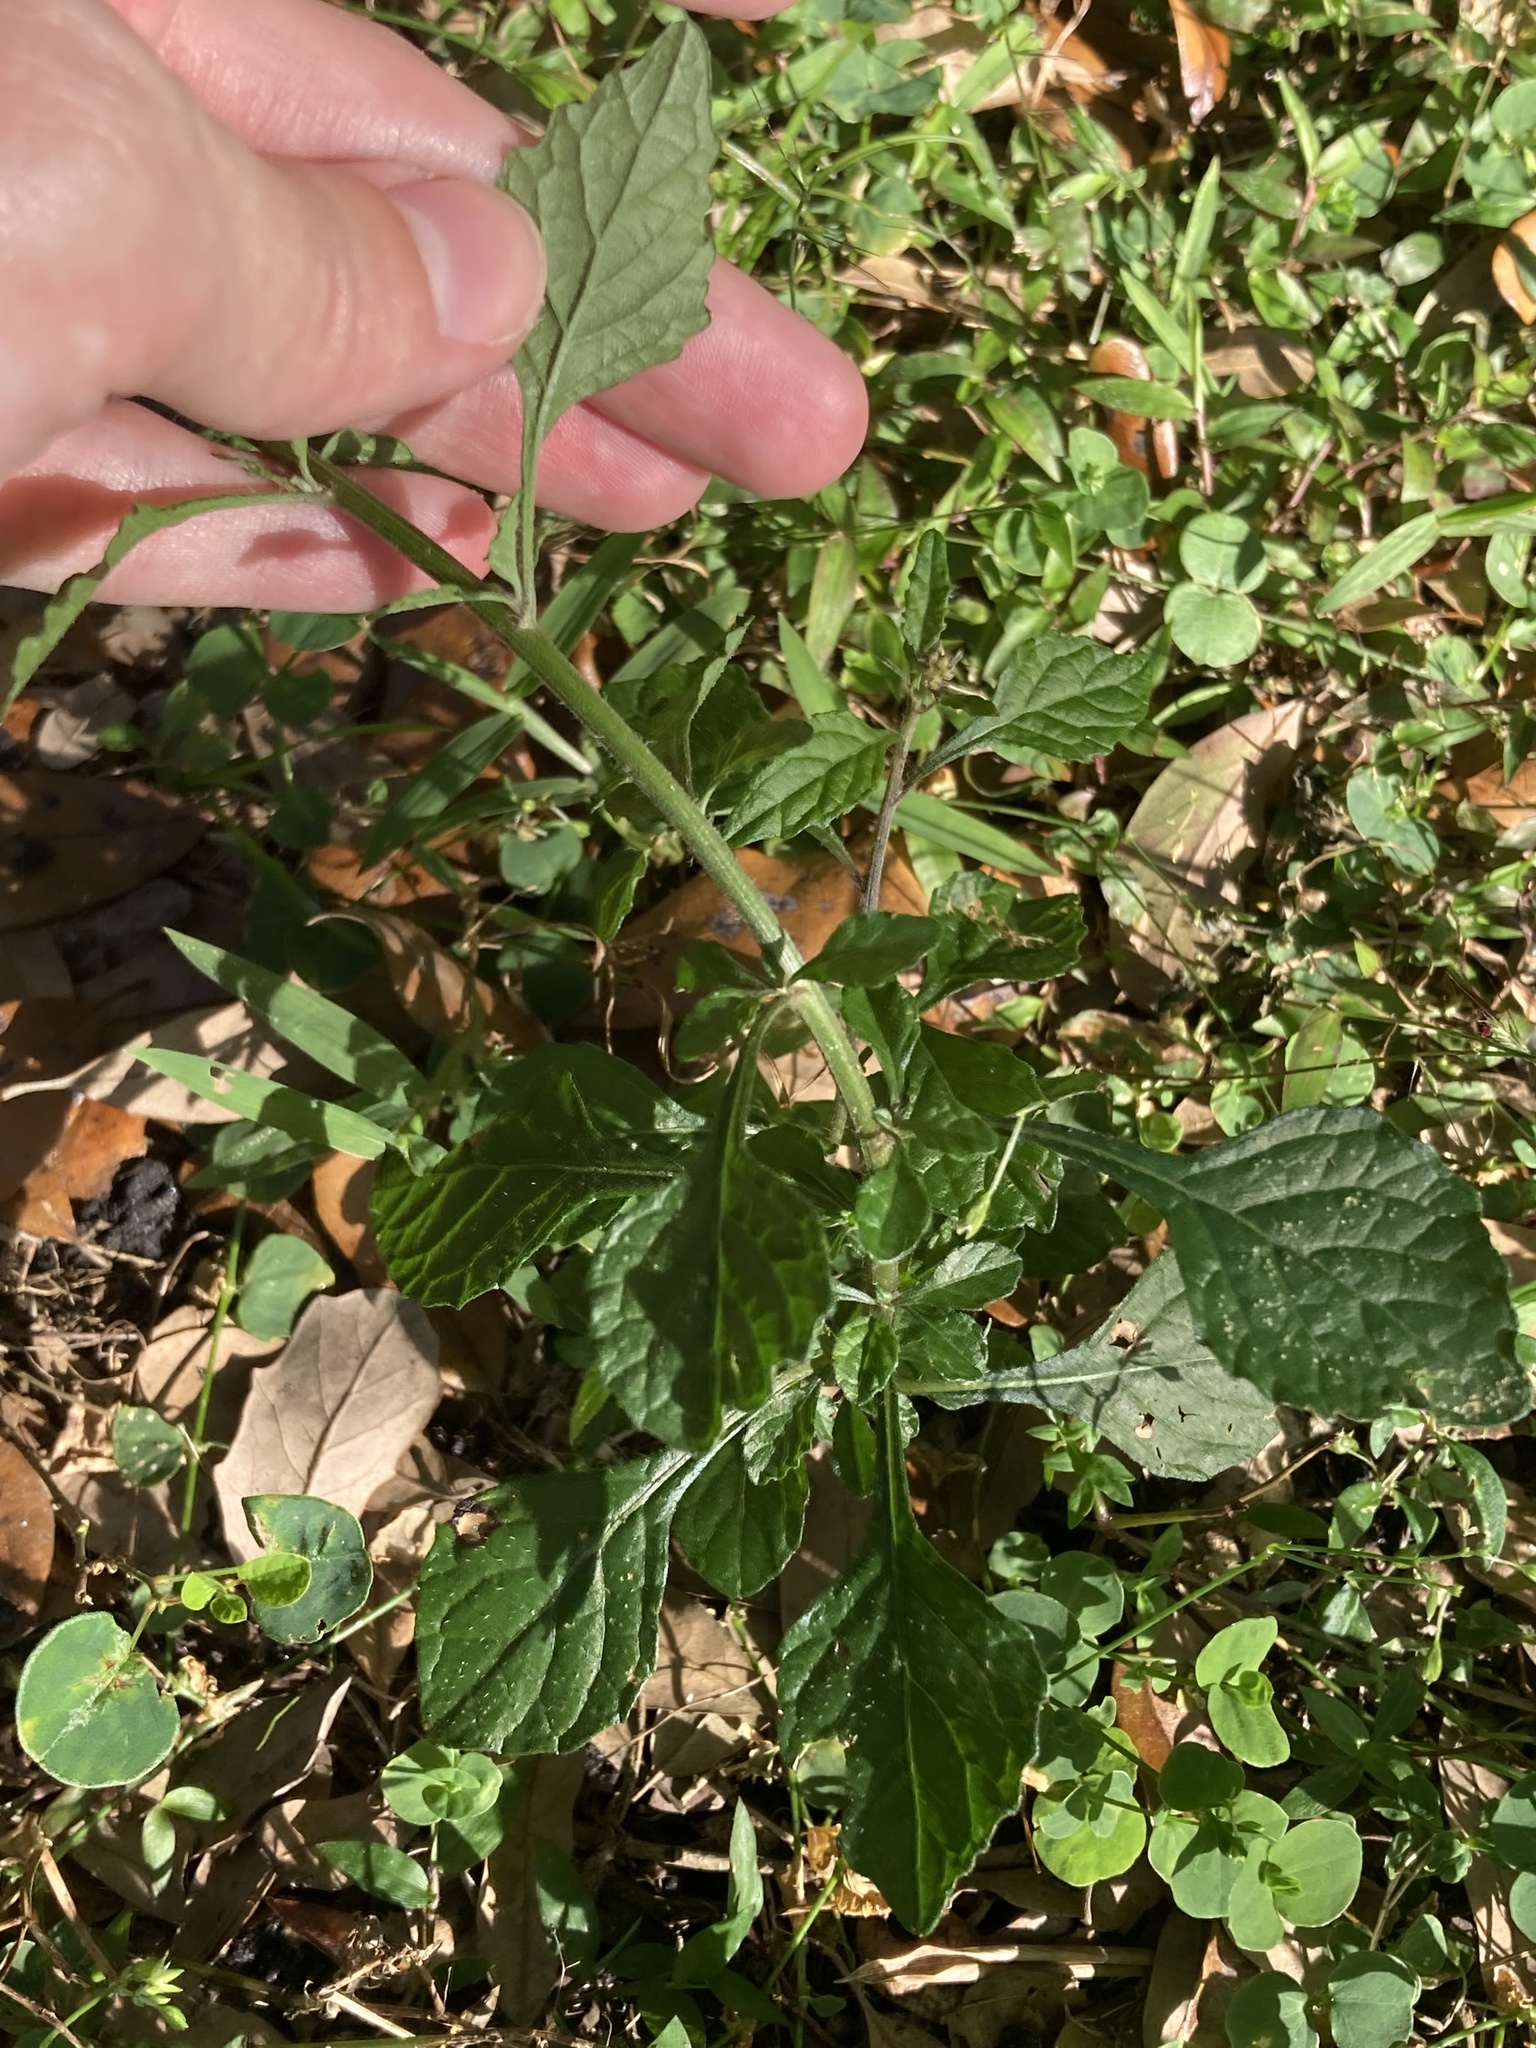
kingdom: Plantae
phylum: Tracheophyta
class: Magnoliopsida
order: Asterales
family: Asteraceae
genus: Cyanthillium
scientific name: Cyanthillium cinereum
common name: Little ironweed
